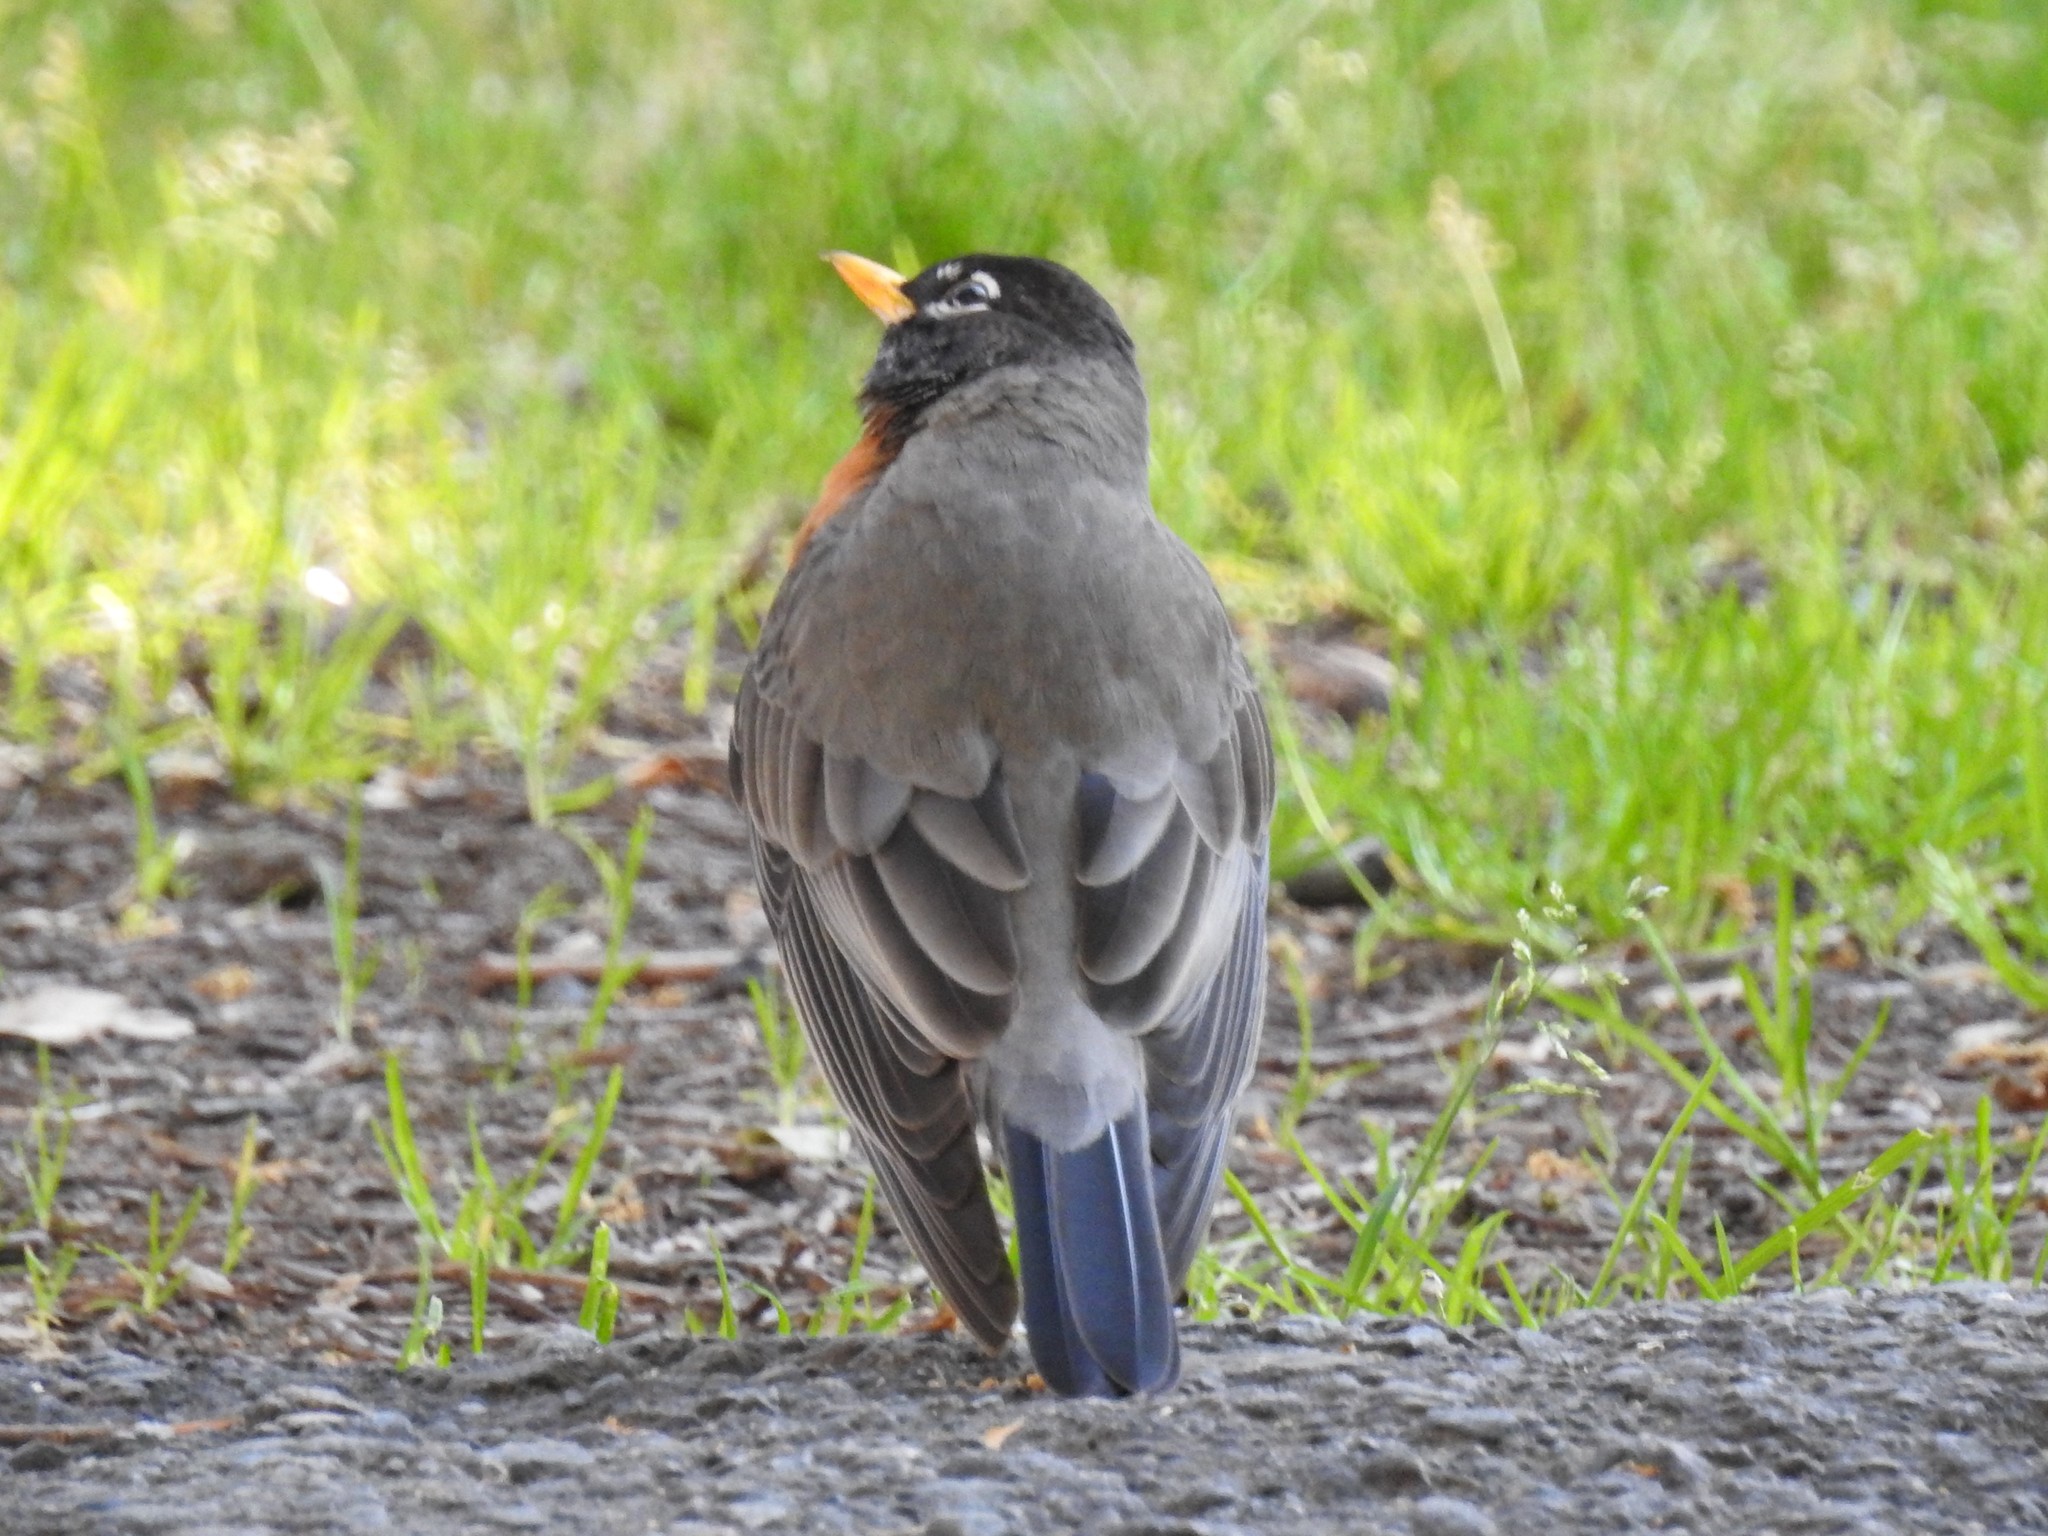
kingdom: Animalia
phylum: Chordata
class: Aves
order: Passeriformes
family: Turdidae
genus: Turdus
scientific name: Turdus migratorius
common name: American robin
